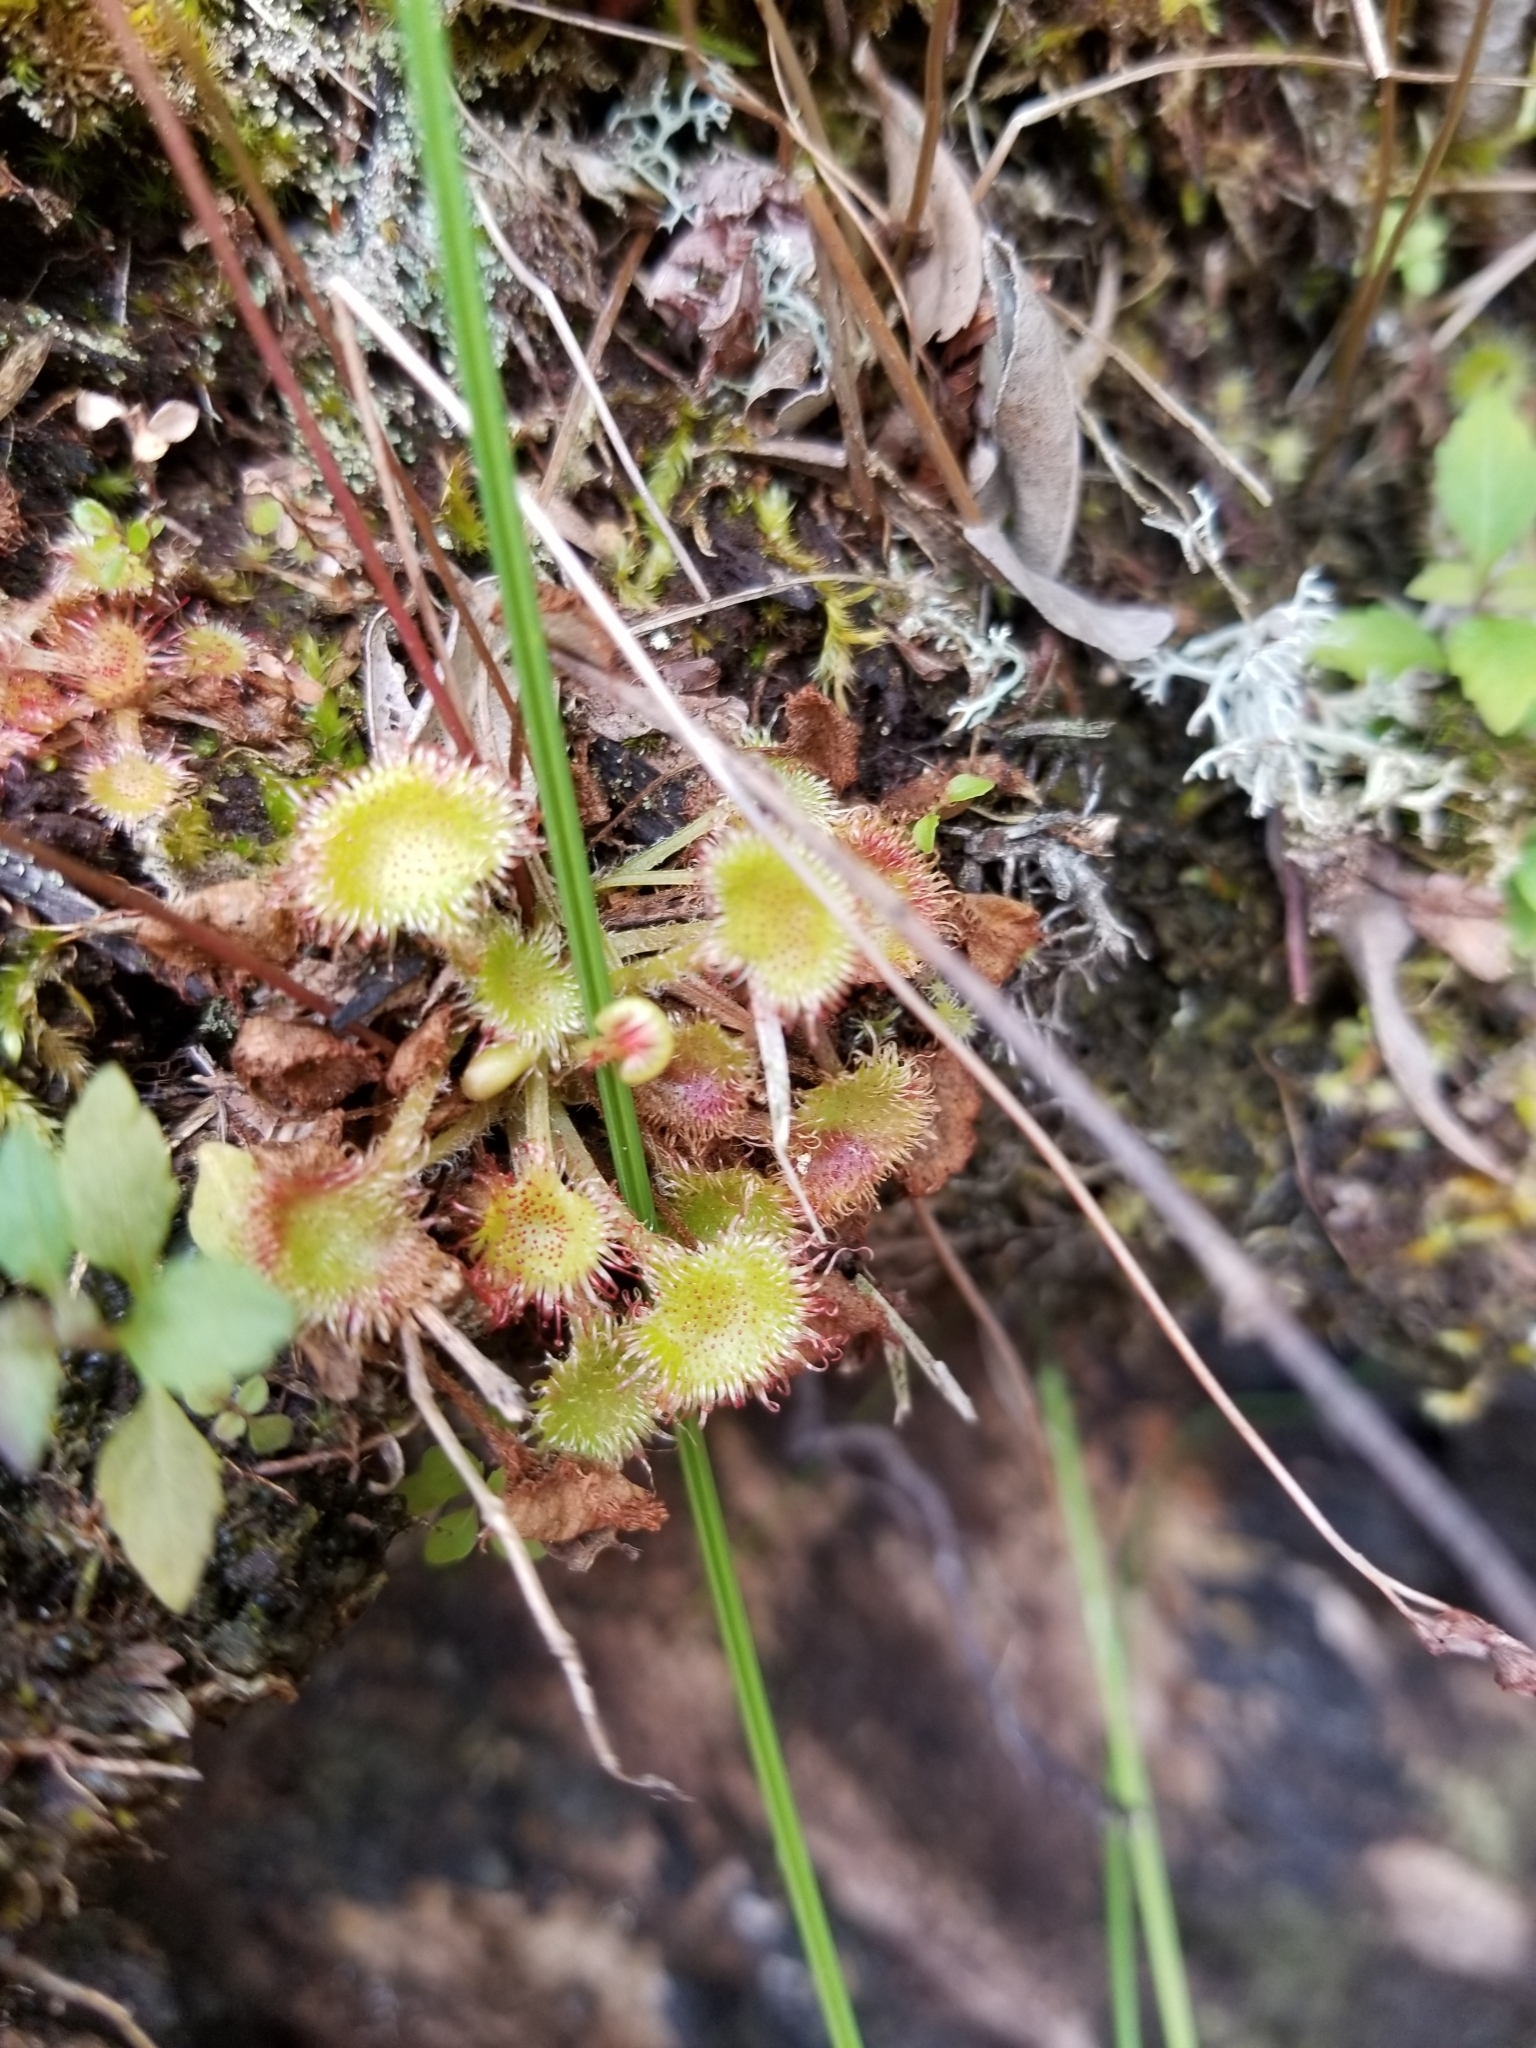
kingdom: Plantae
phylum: Tracheophyta
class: Magnoliopsida
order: Caryophyllales
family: Droseraceae
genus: Drosera
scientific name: Drosera rotundifolia
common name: Round-leaved sundew
